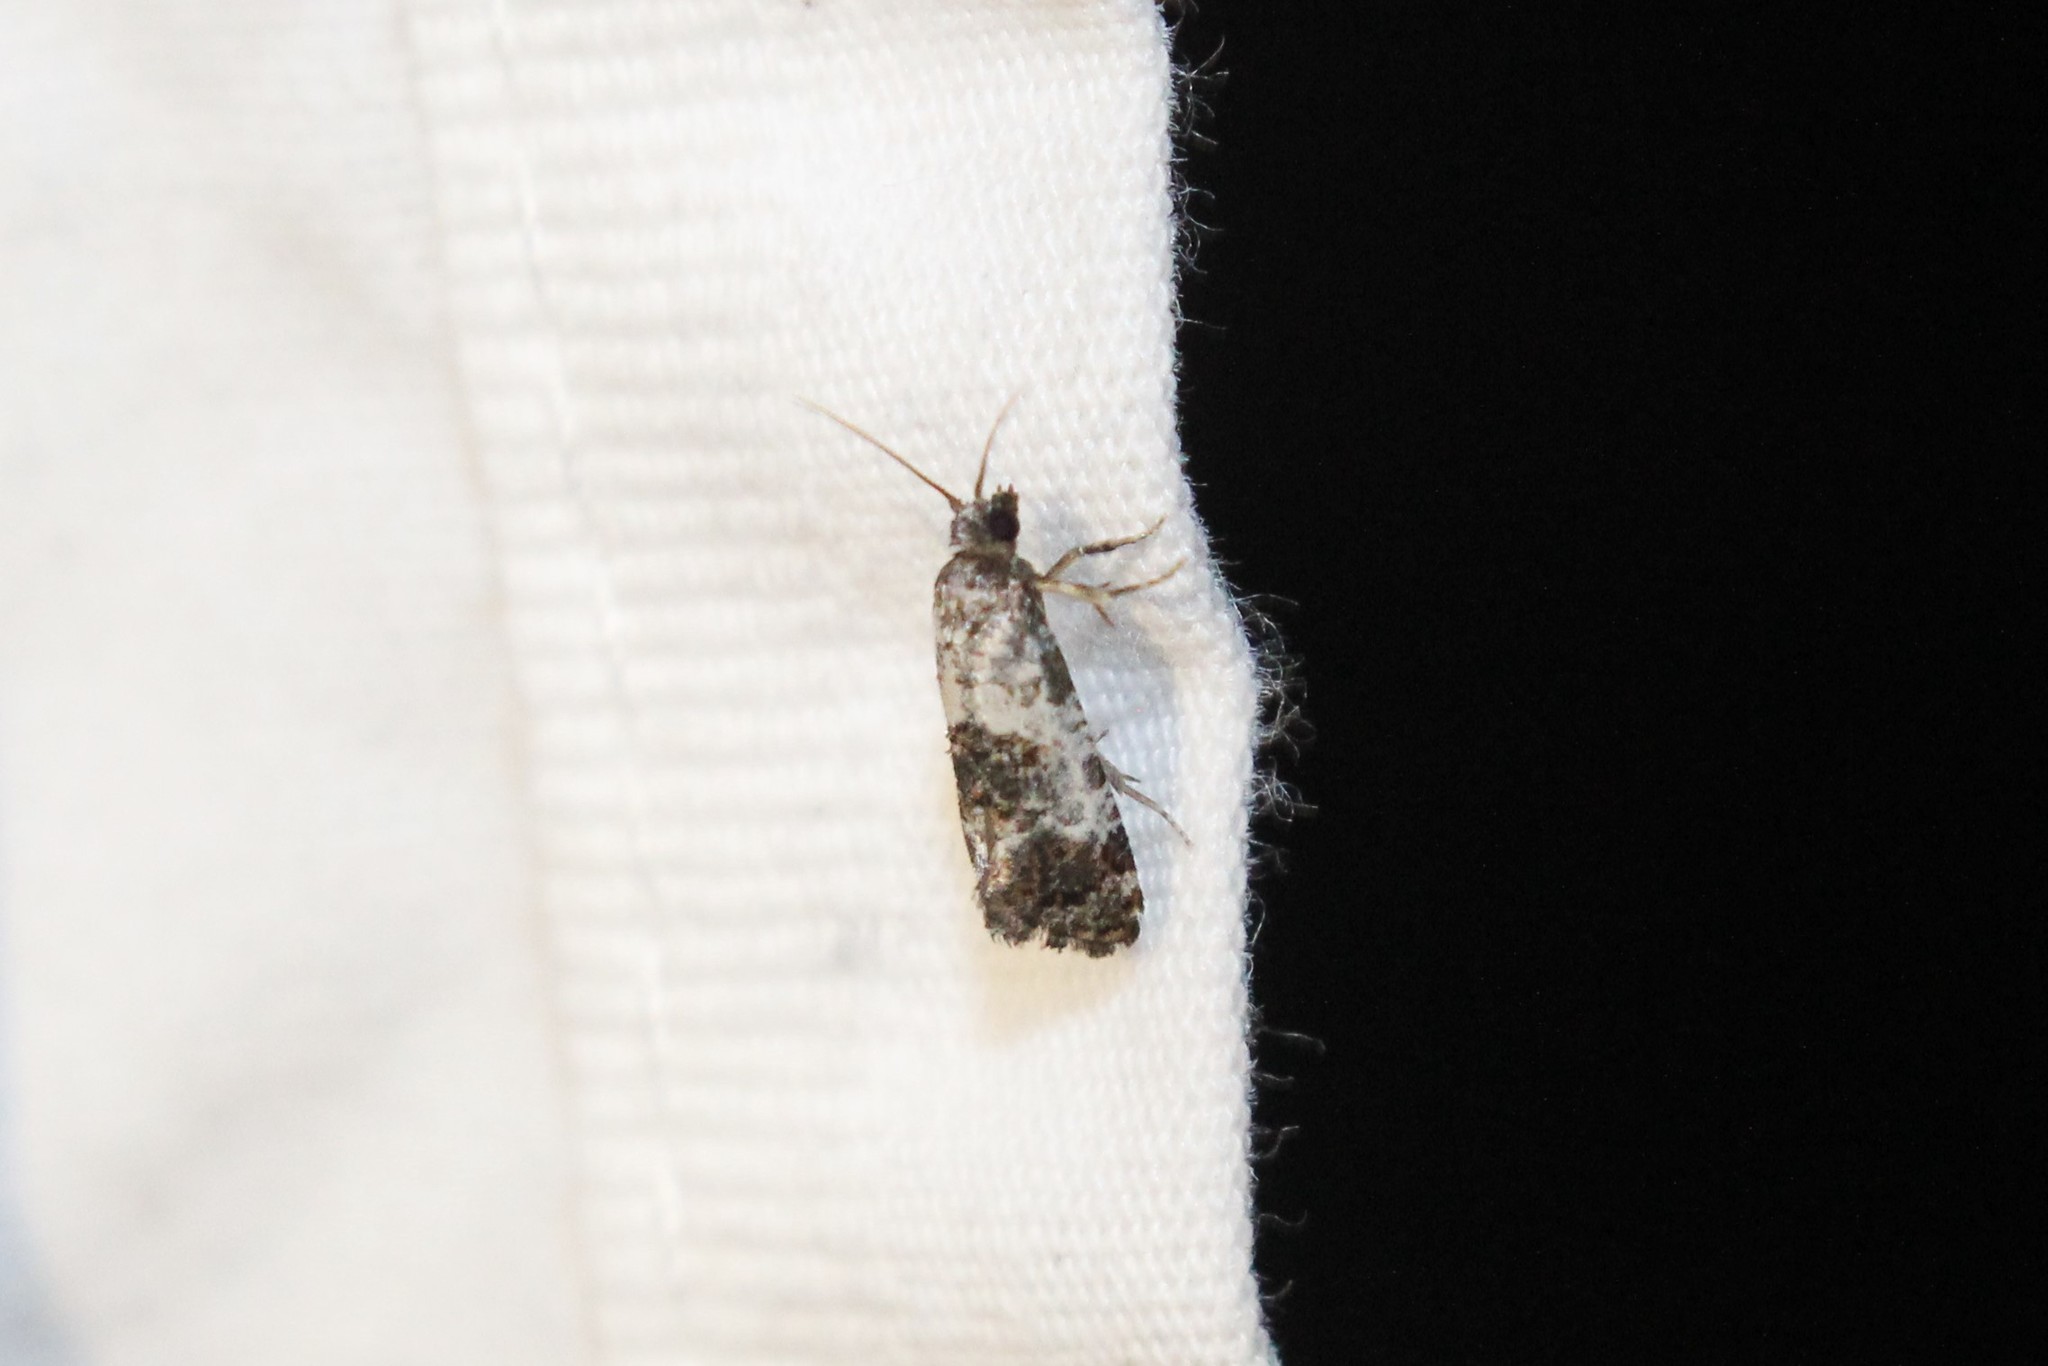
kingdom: Animalia
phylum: Arthropoda
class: Insecta
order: Lepidoptera
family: Tortricidae
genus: Rudenia
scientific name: Rudenia leguminana
